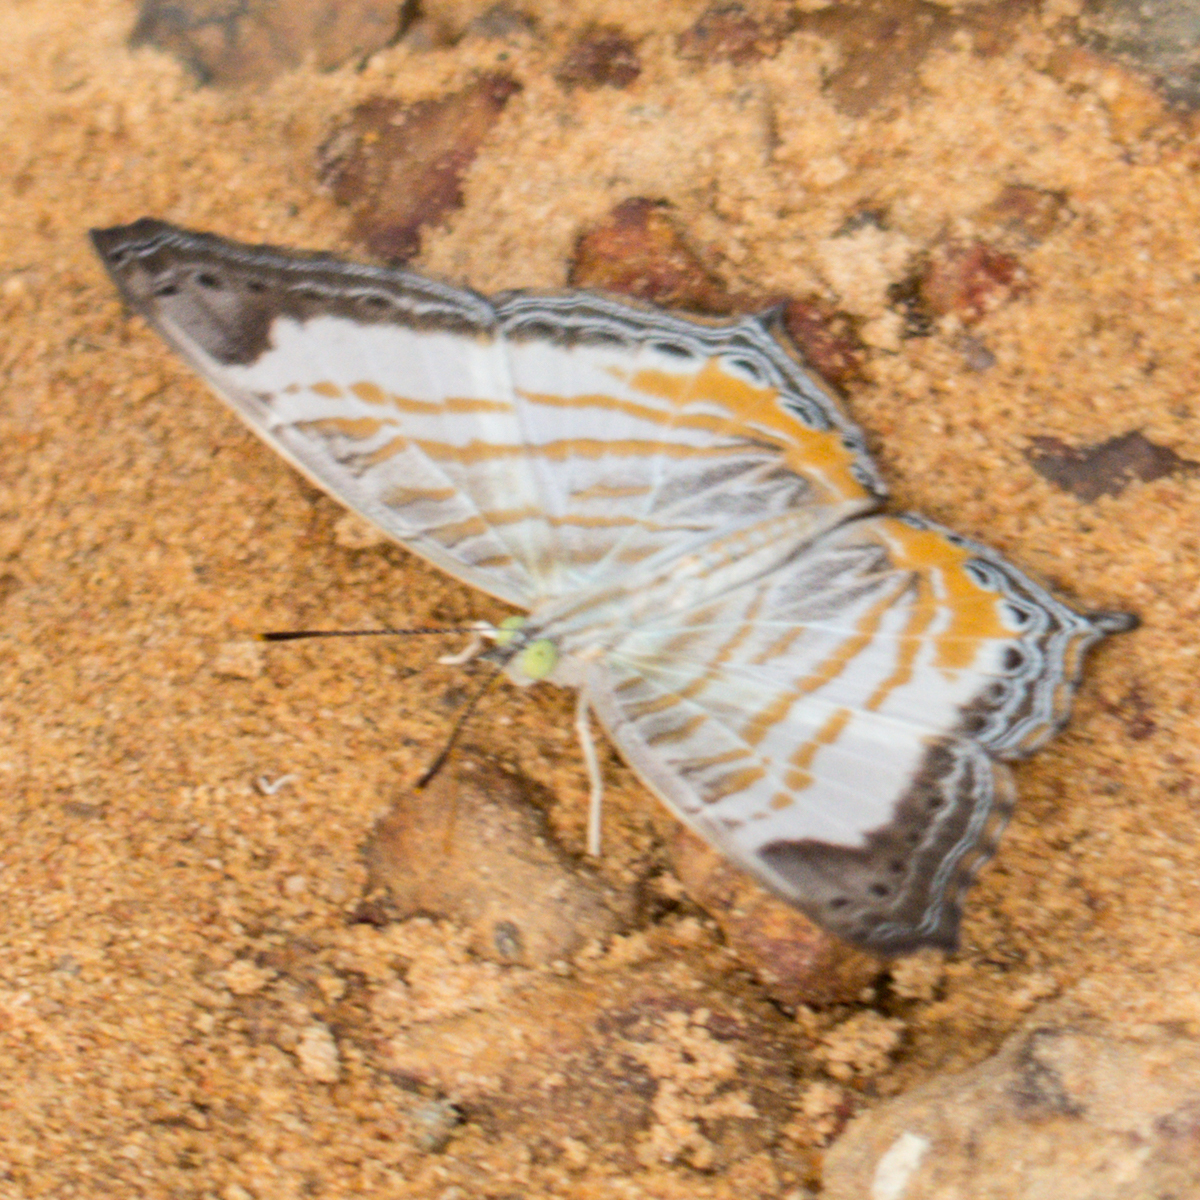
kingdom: Animalia
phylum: Arthropoda
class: Insecta
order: Lepidoptera
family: Nymphalidae
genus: Cyrestis
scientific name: Cyrestis themire
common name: Little mapwing
